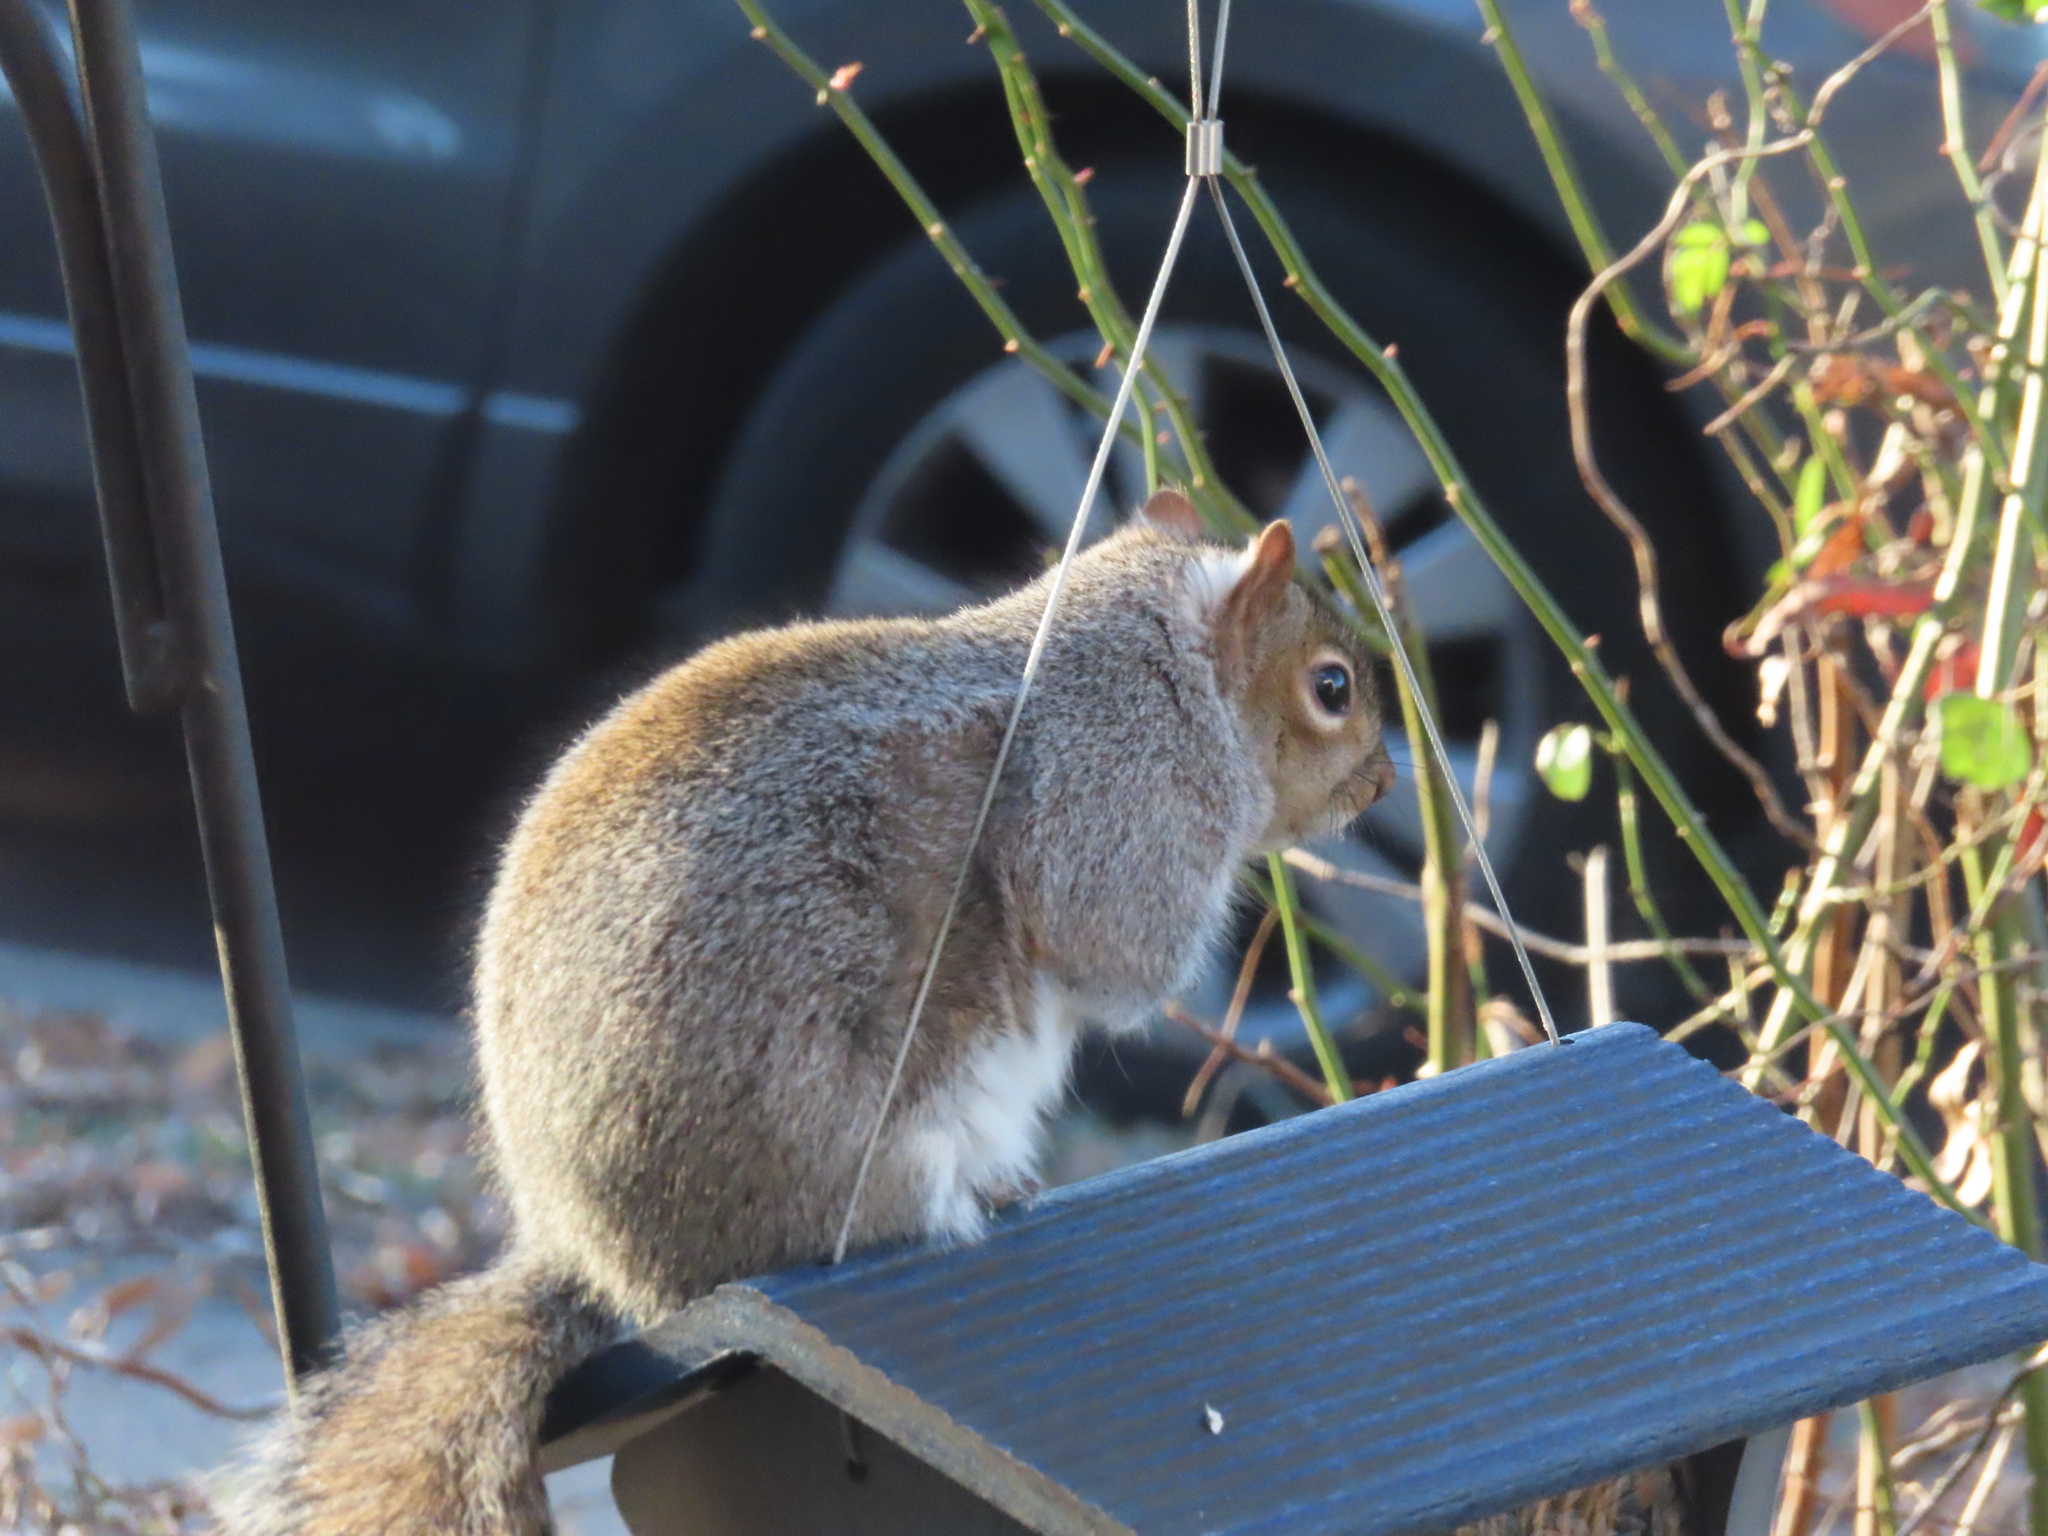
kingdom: Animalia
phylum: Chordata
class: Mammalia
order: Rodentia
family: Sciuridae
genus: Sciurus
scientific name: Sciurus carolinensis
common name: Eastern gray squirrel
